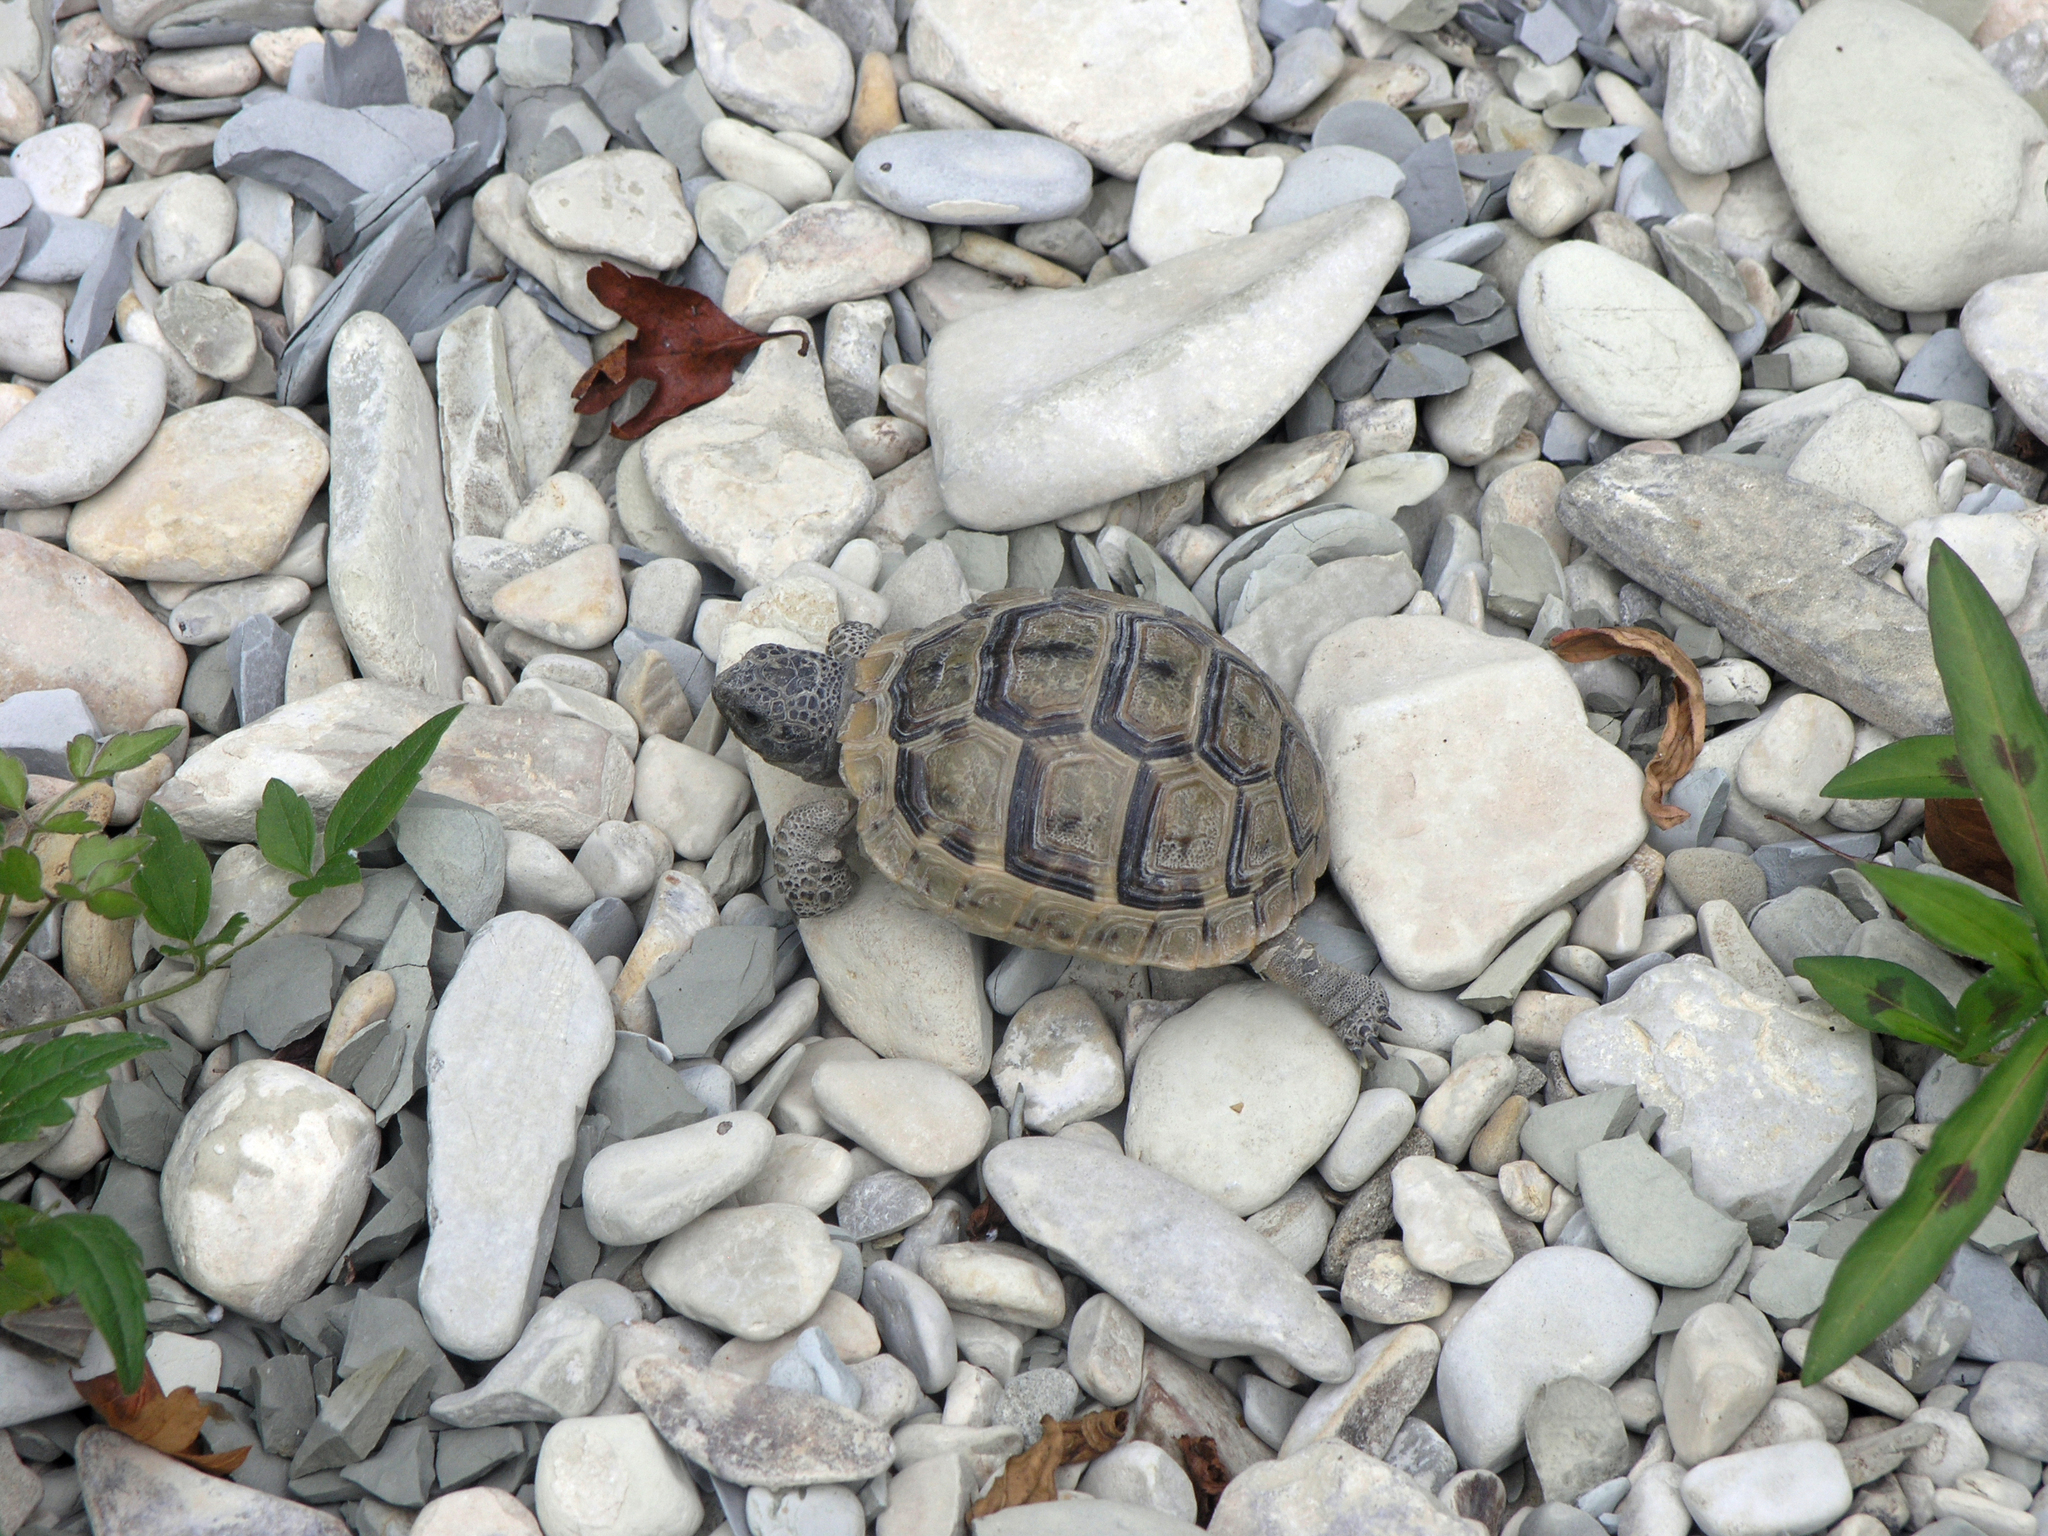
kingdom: Animalia
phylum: Chordata
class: Testudines
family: Testudinidae
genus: Testudo
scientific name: Testudo graeca
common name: Common tortoise
